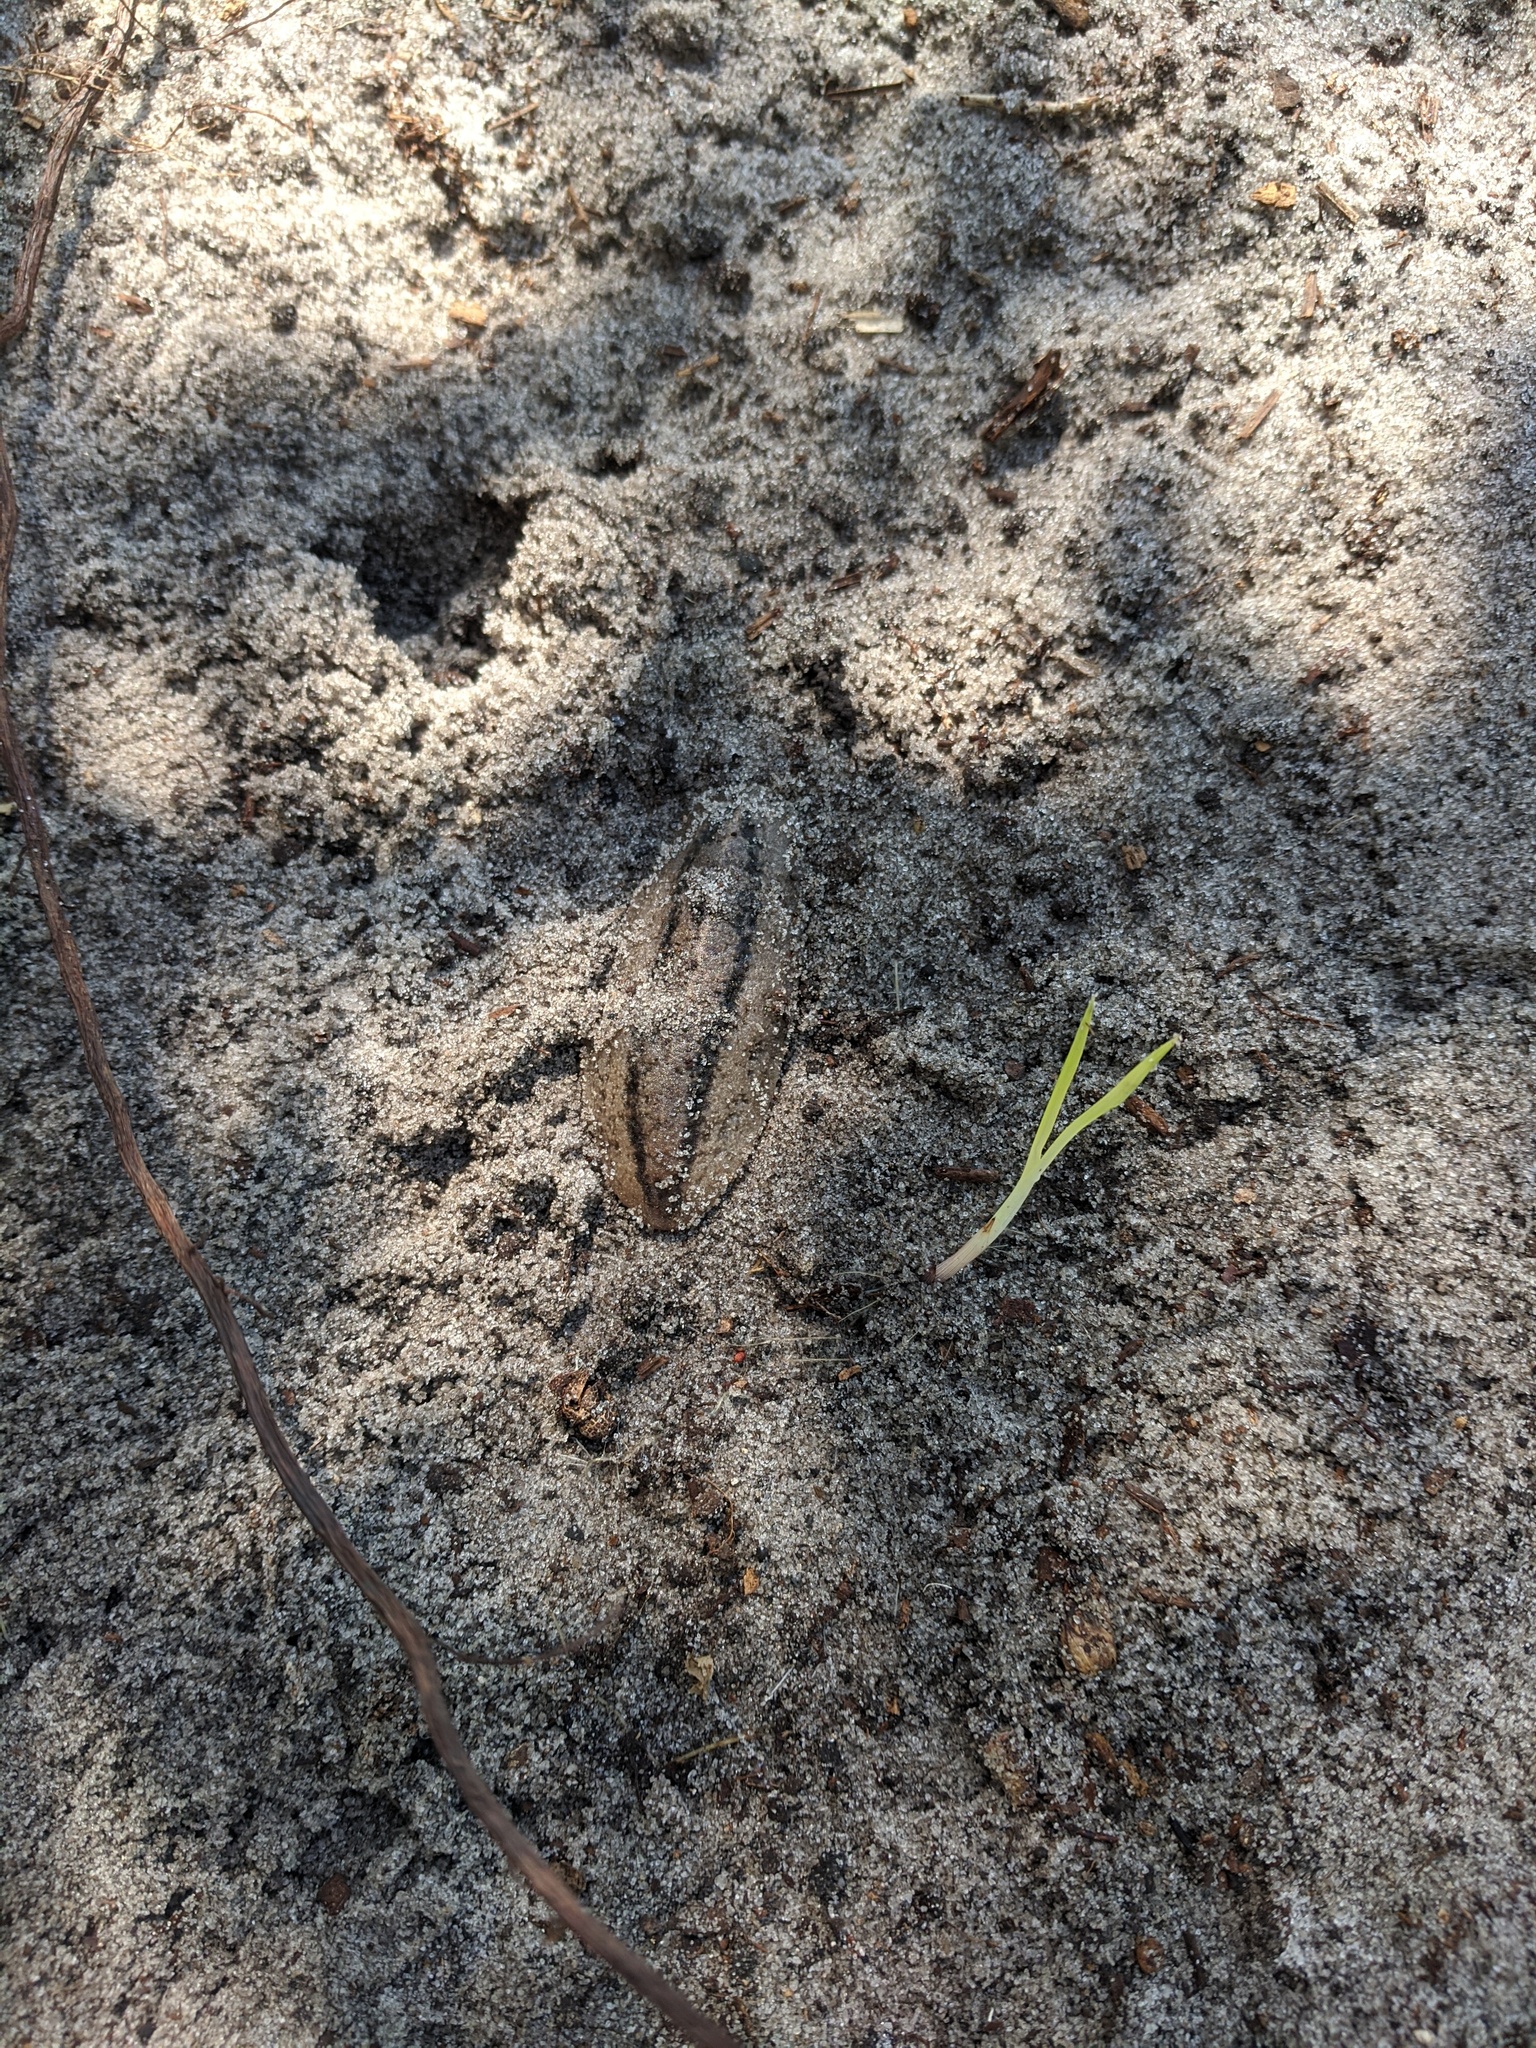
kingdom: Animalia
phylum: Mollusca
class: Gastropoda
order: Systellommatophora
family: Veronicellidae
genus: Leidyula
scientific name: Leidyula floridana
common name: Florida leatherleaf
